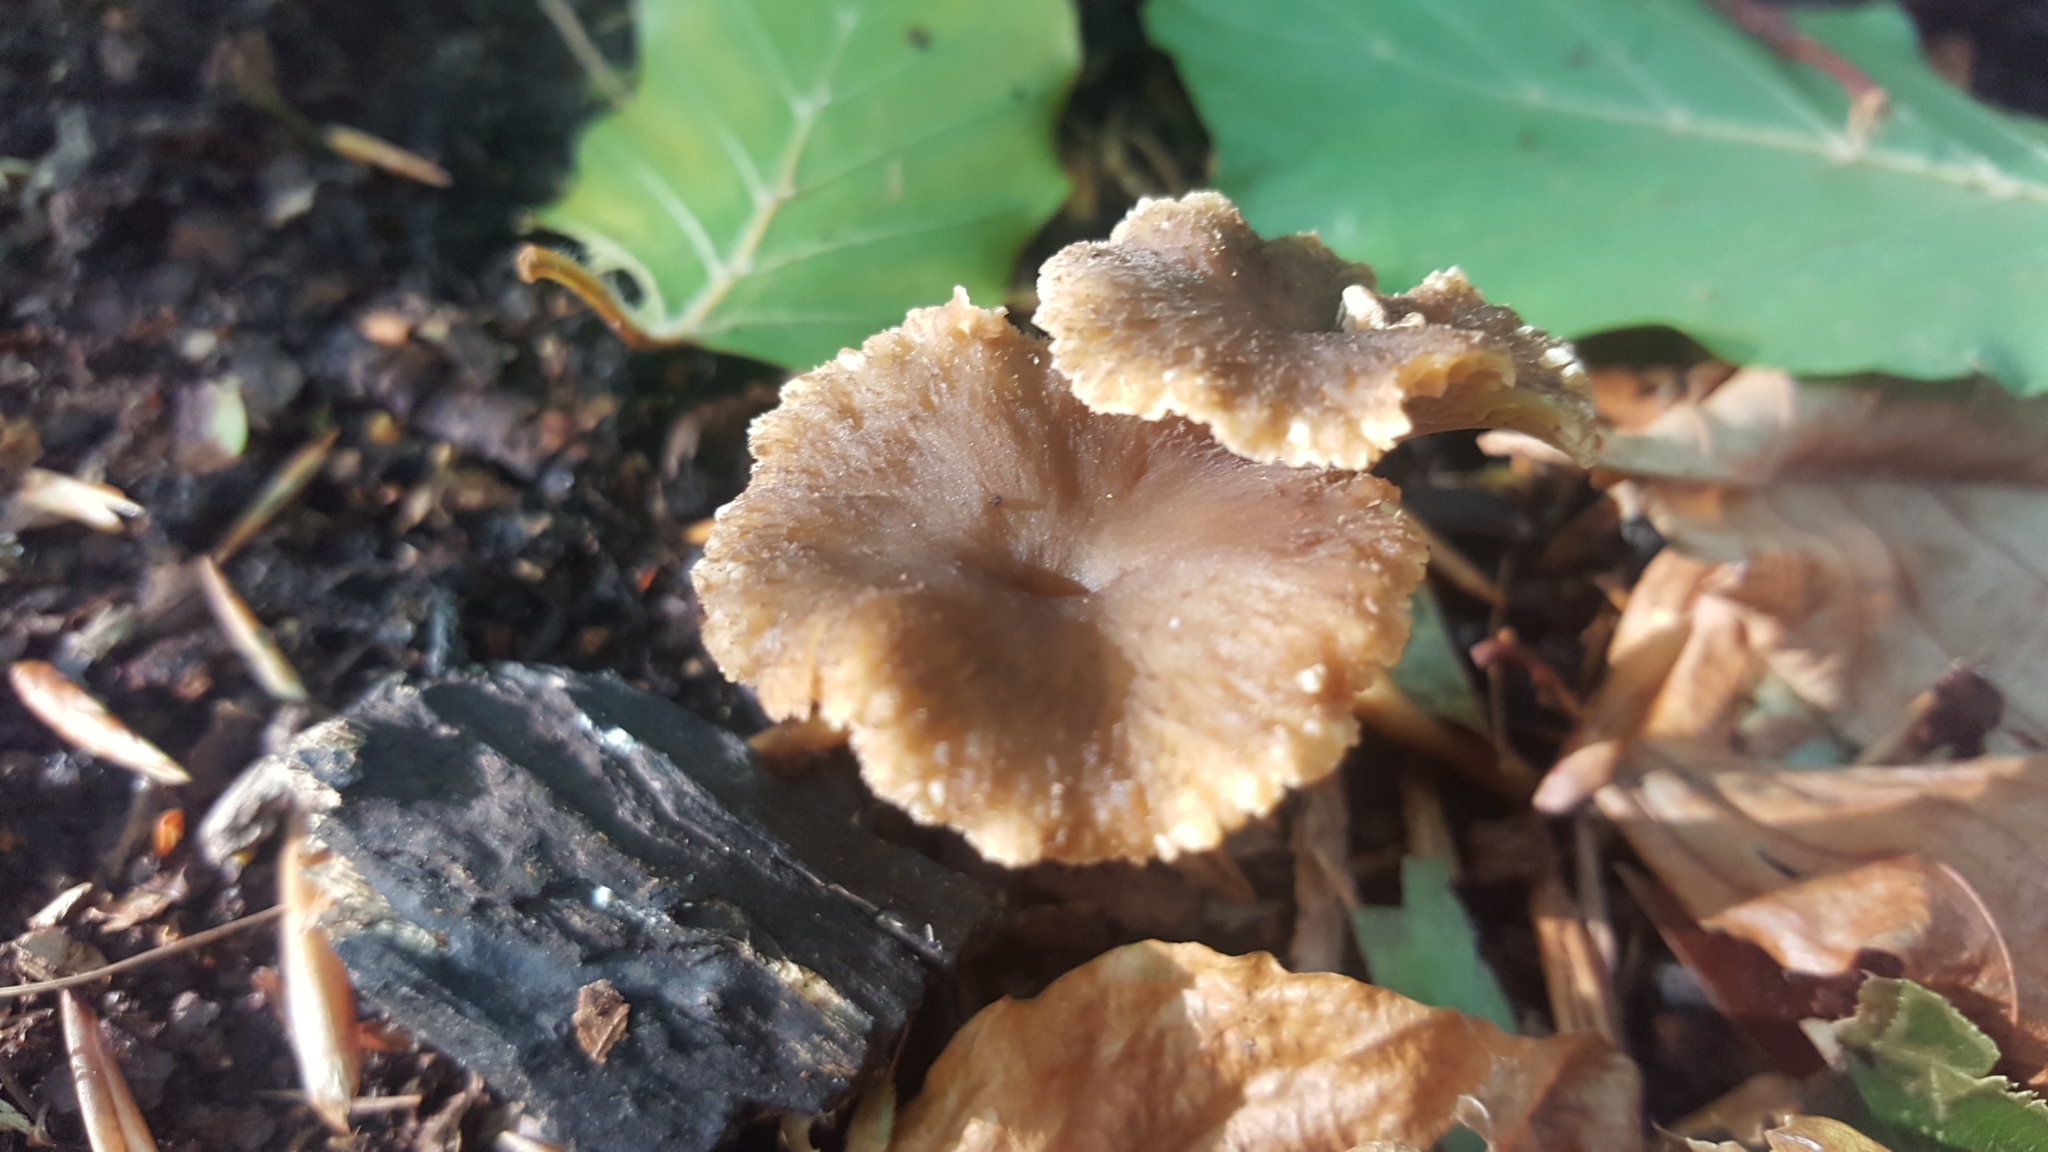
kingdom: Fungi
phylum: Basidiomycota
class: Agaricomycetes
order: Cantharellales
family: Hydnaceae
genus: Craterellus
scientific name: Craterellus tubaeformis
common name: Yellowfoot
